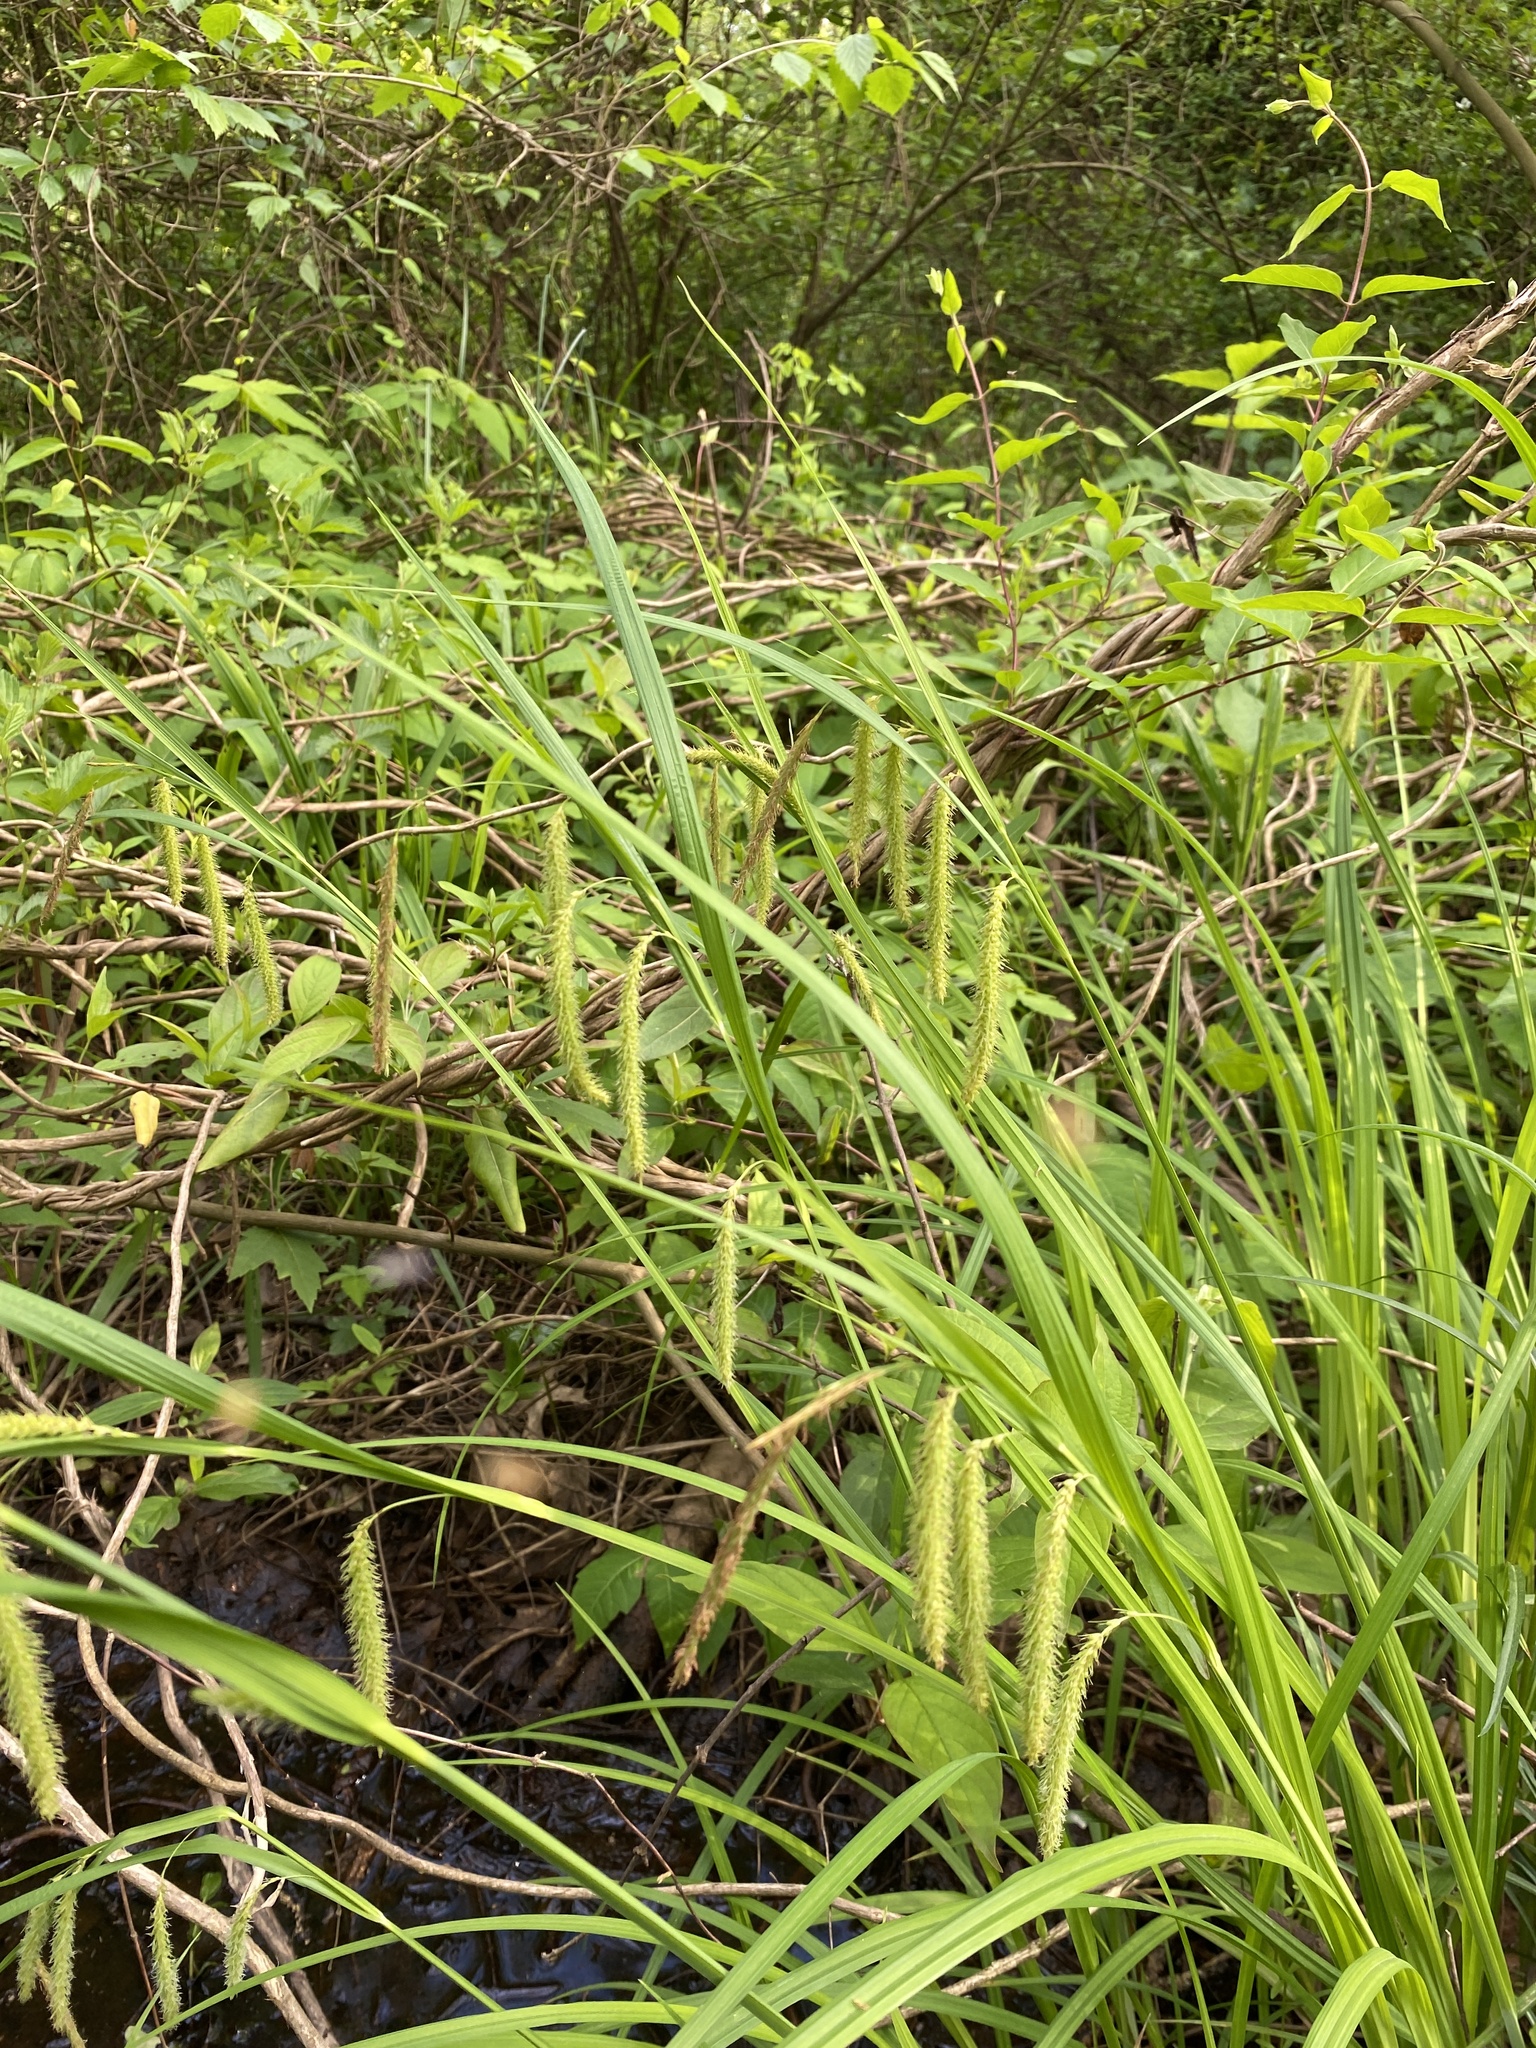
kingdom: Plantae
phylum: Tracheophyta
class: Liliopsida
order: Poales
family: Cyperaceae
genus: Carex
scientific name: Carex crinita
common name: Fringed sedge
